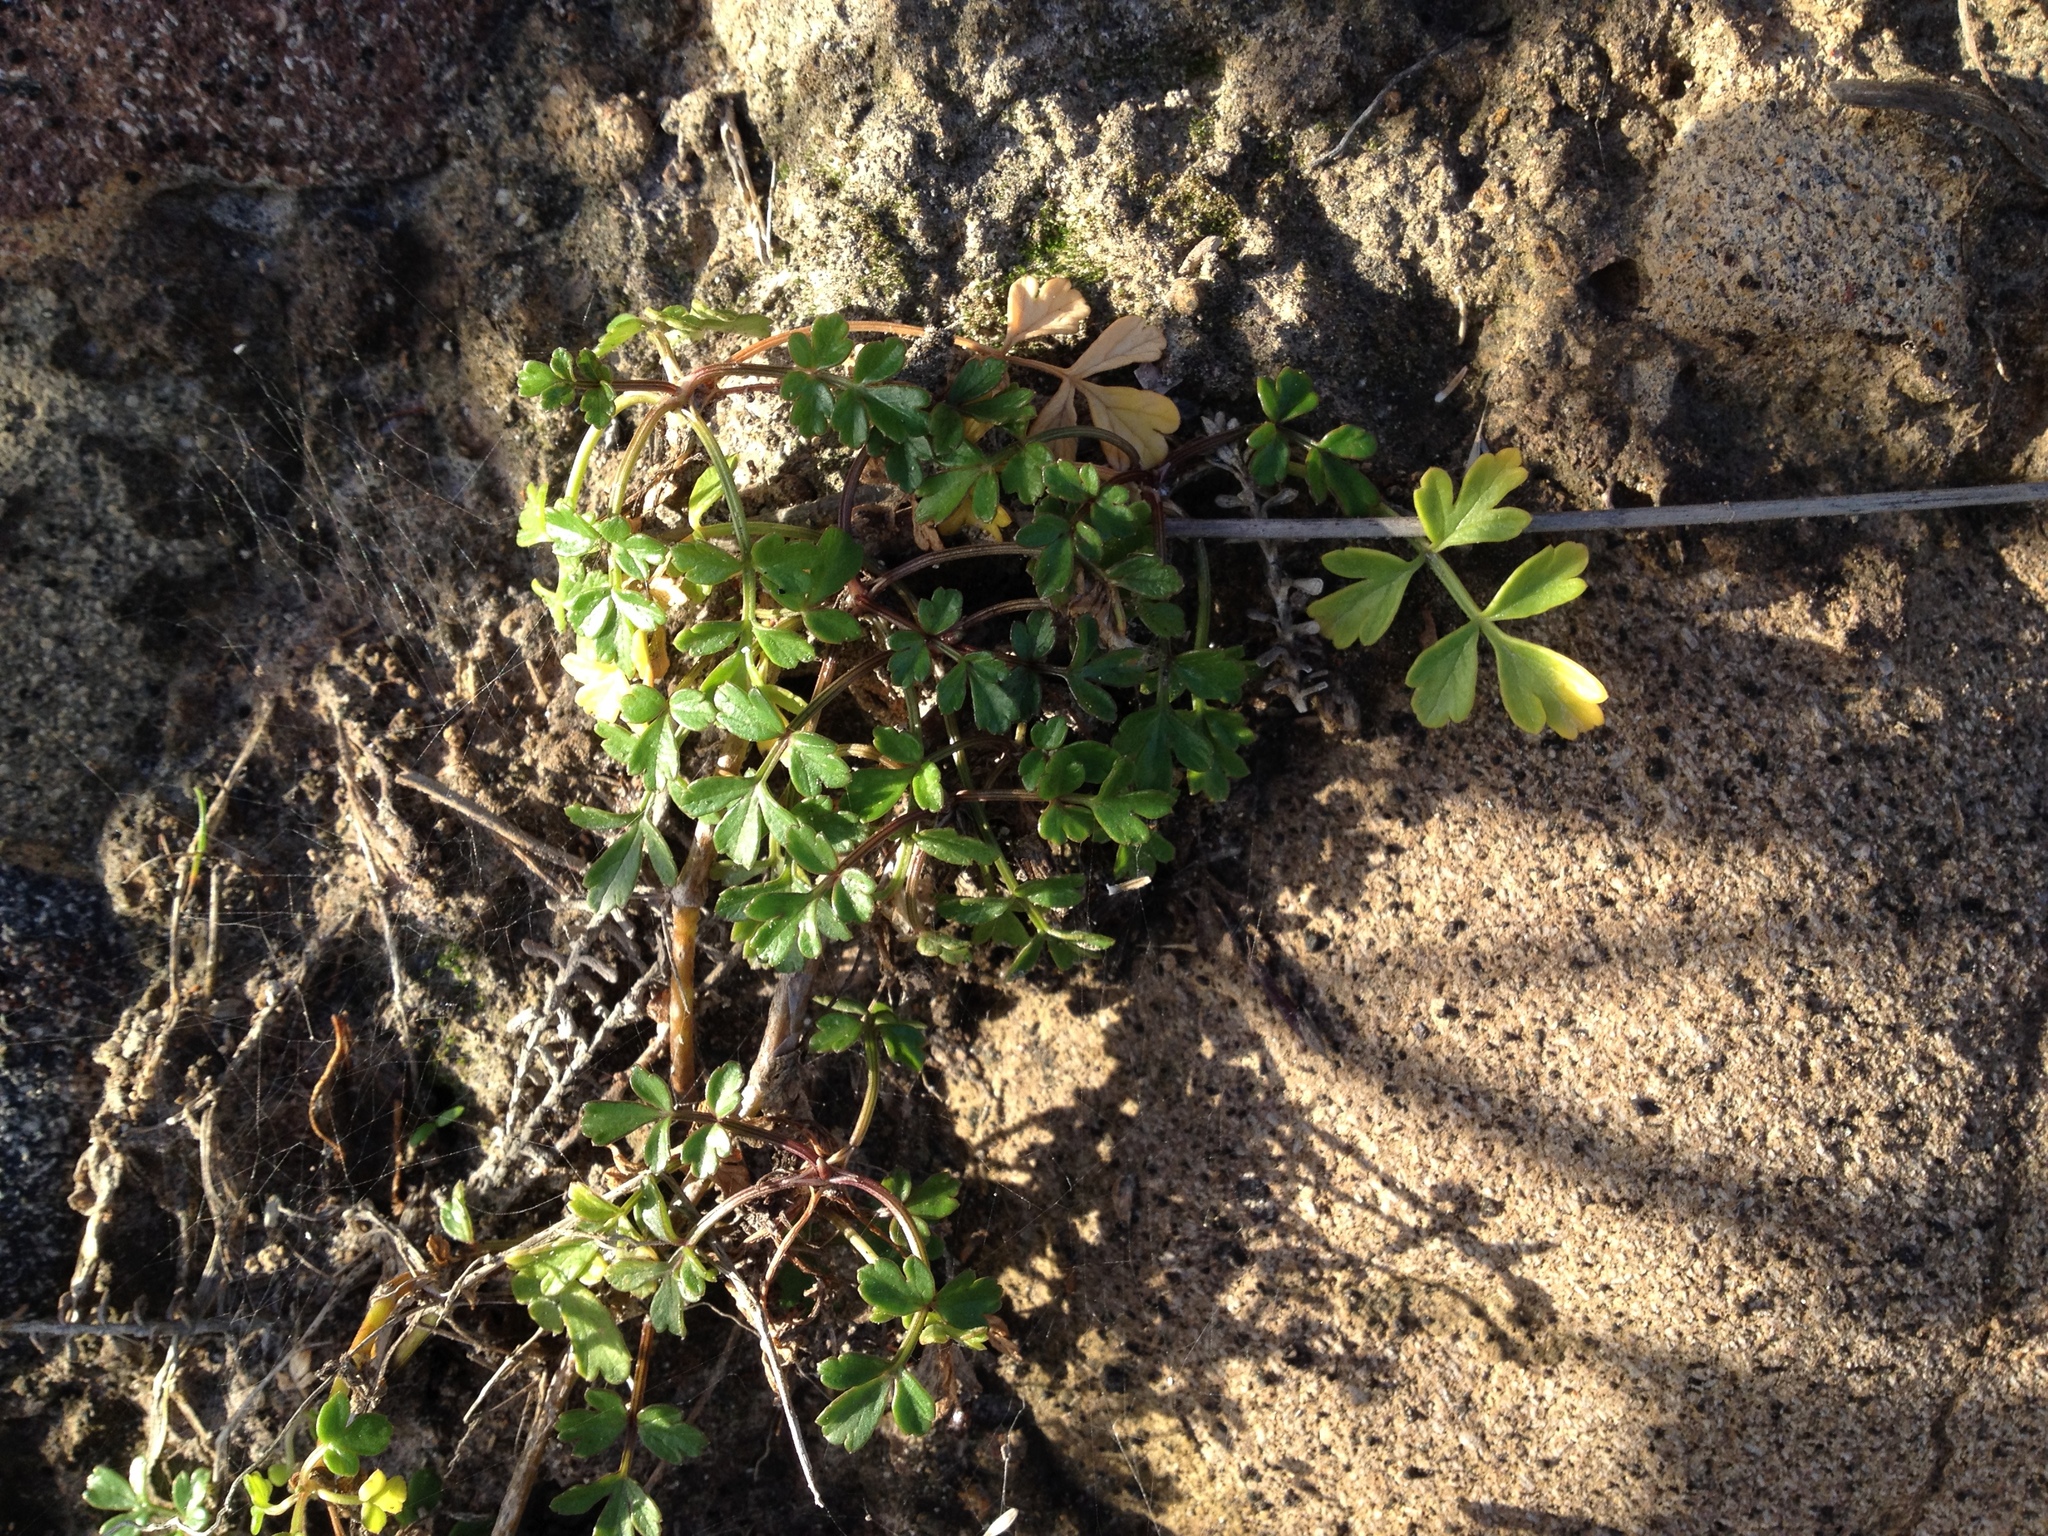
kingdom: Plantae
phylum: Tracheophyta
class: Magnoliopsida
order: Apiales
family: Apiaceae
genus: Apium
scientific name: Apium prostratum
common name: Prostrate marshwort
